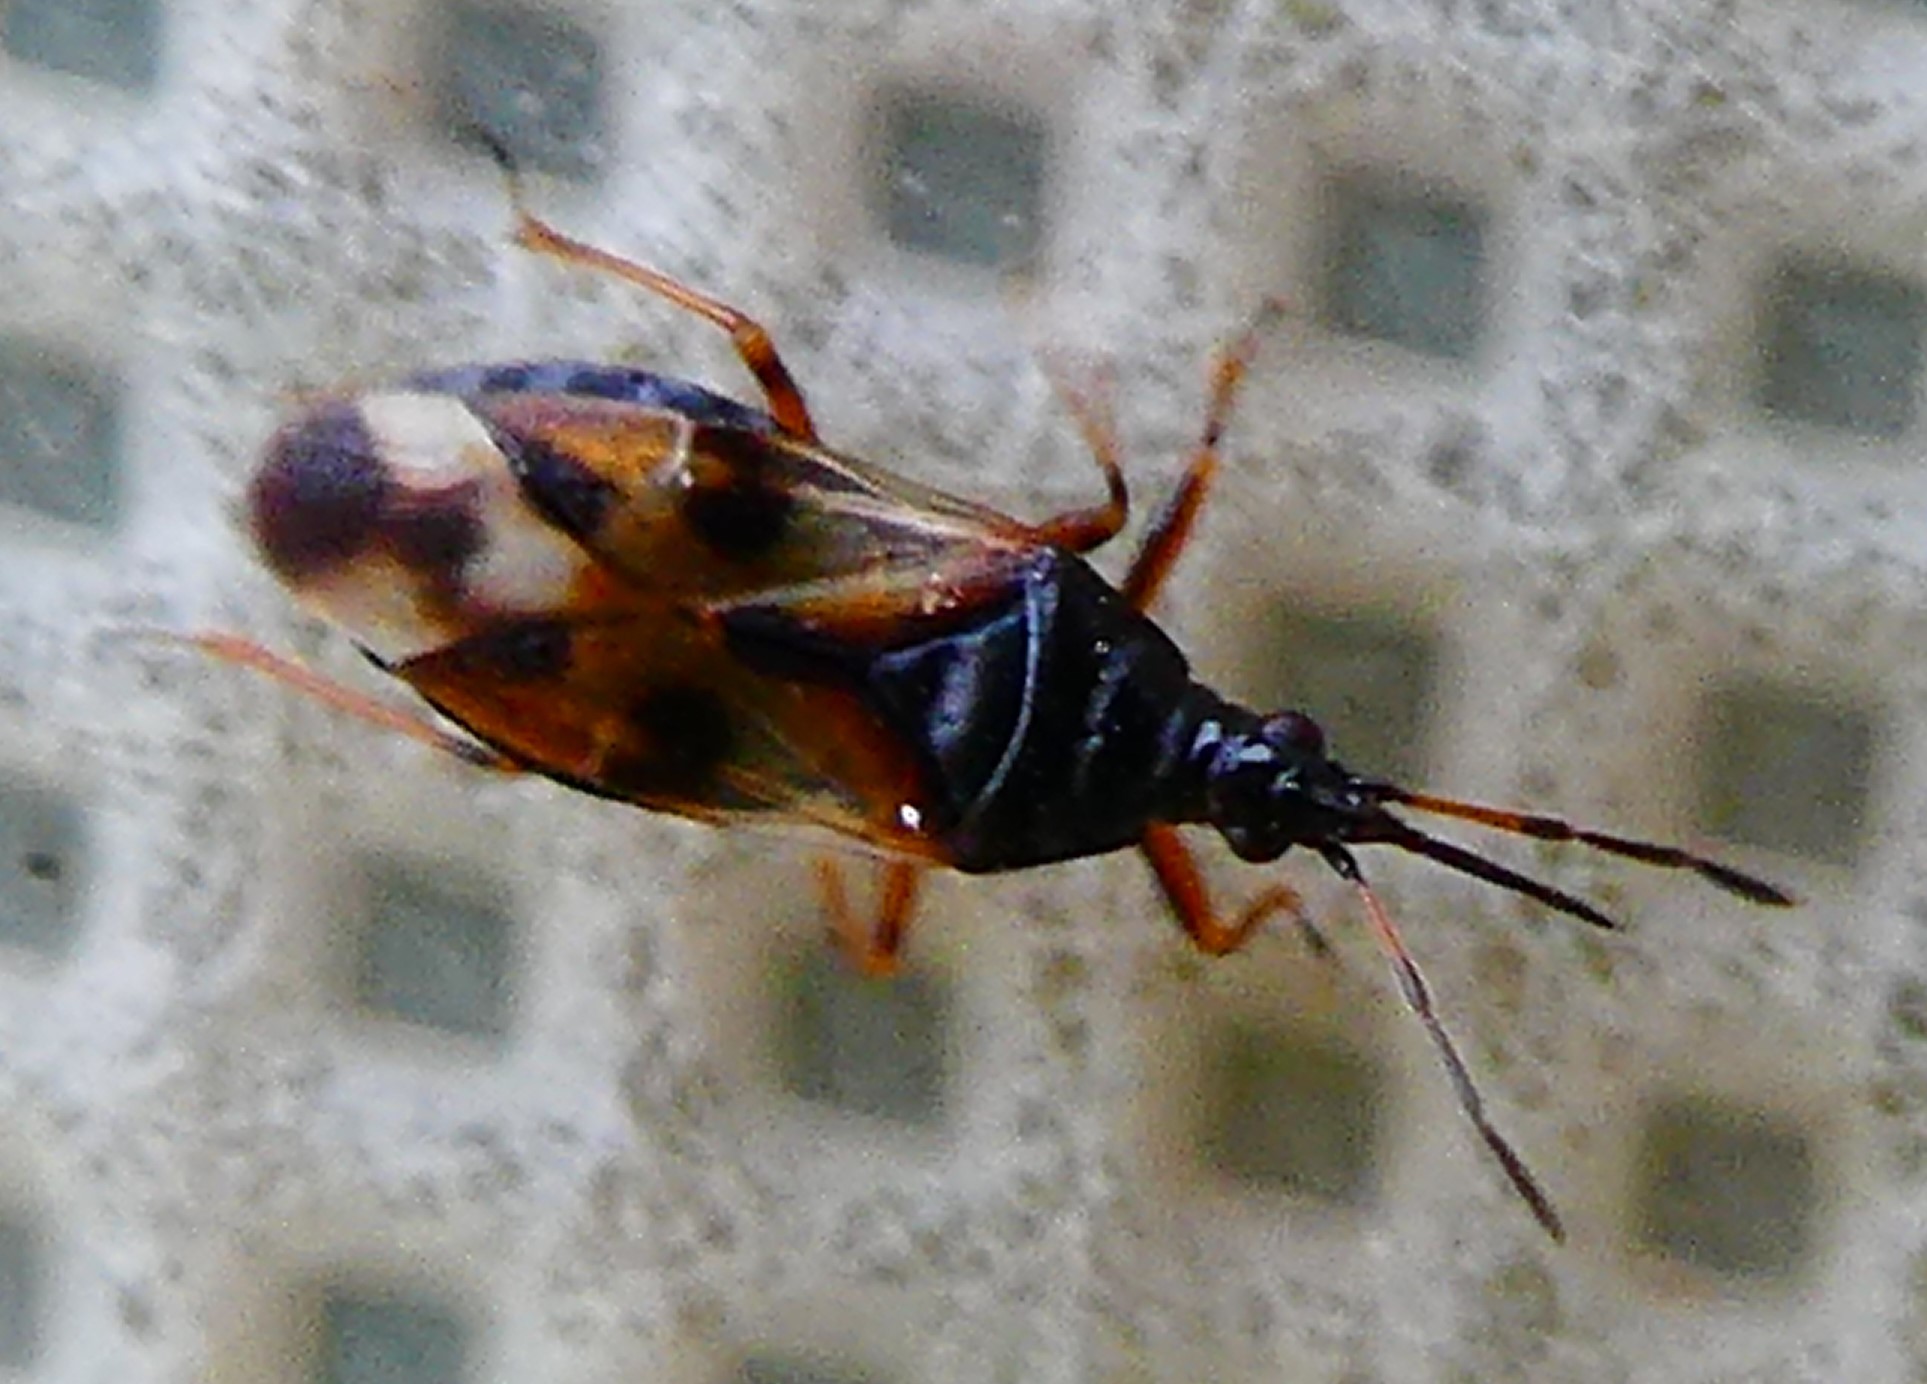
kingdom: Animalia
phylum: Arthropoda
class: Insecta
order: Hemiptera
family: Anthocoridae
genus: Anthocoris
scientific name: Anthocoris nemorum
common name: Minute pirate bug
